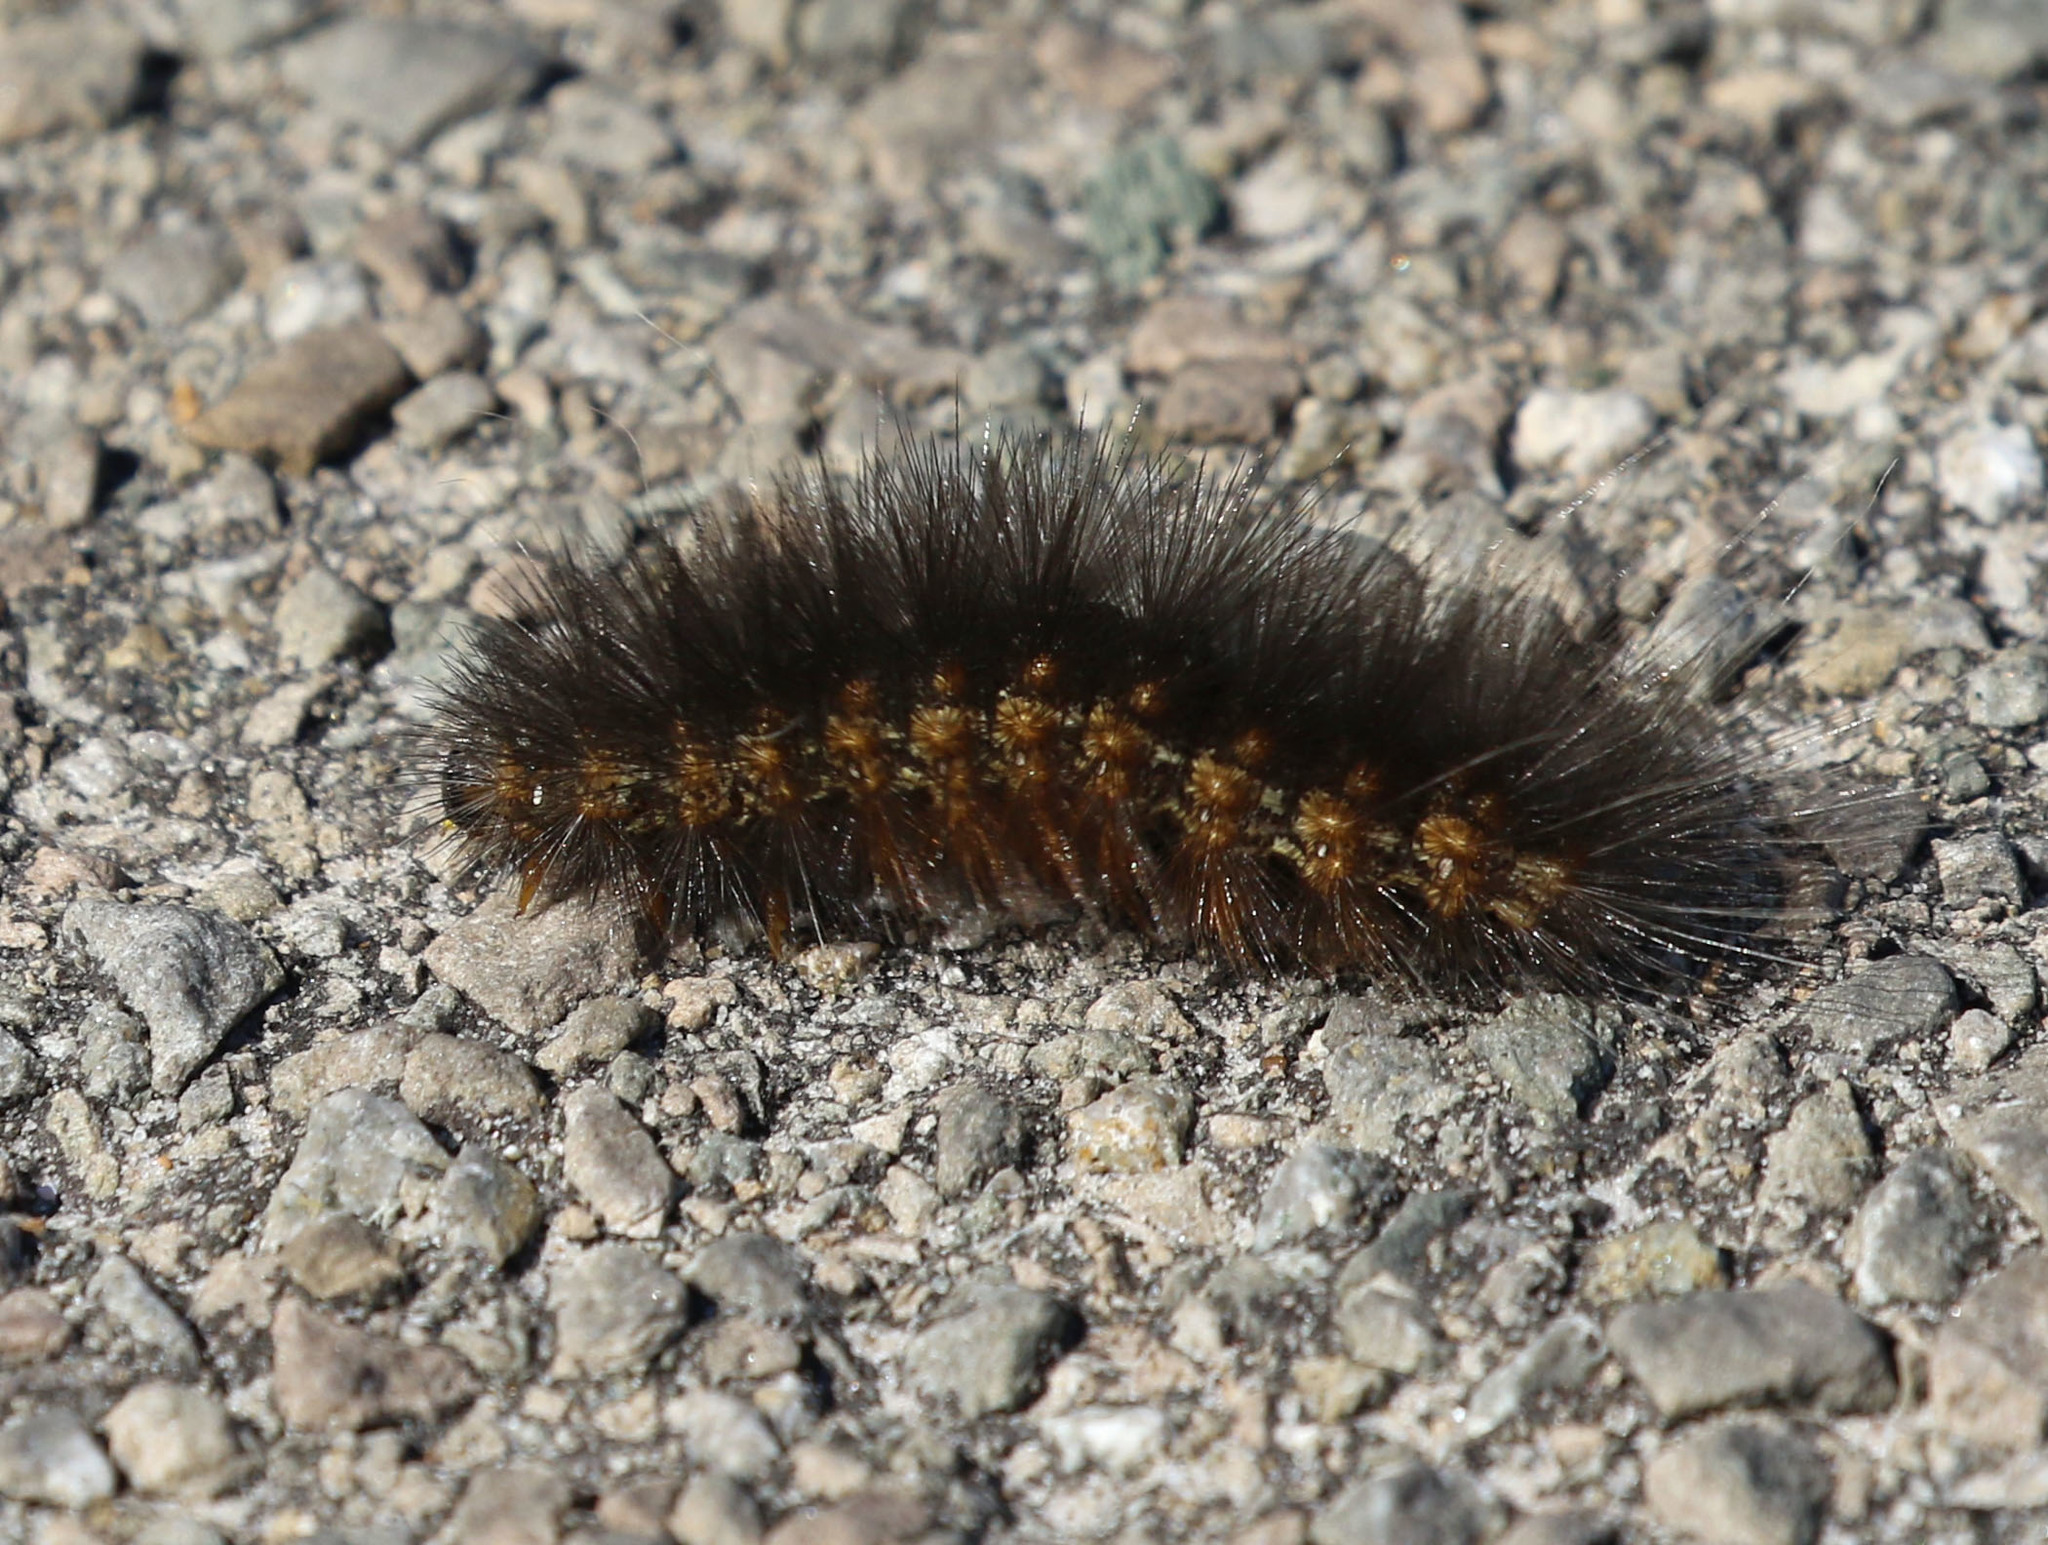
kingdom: Animalia
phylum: Arthropoda
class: Insecta
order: Lepidoptera
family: Erebidae
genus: Estigmene
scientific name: Estigmene acrea
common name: Salt marsh moth
